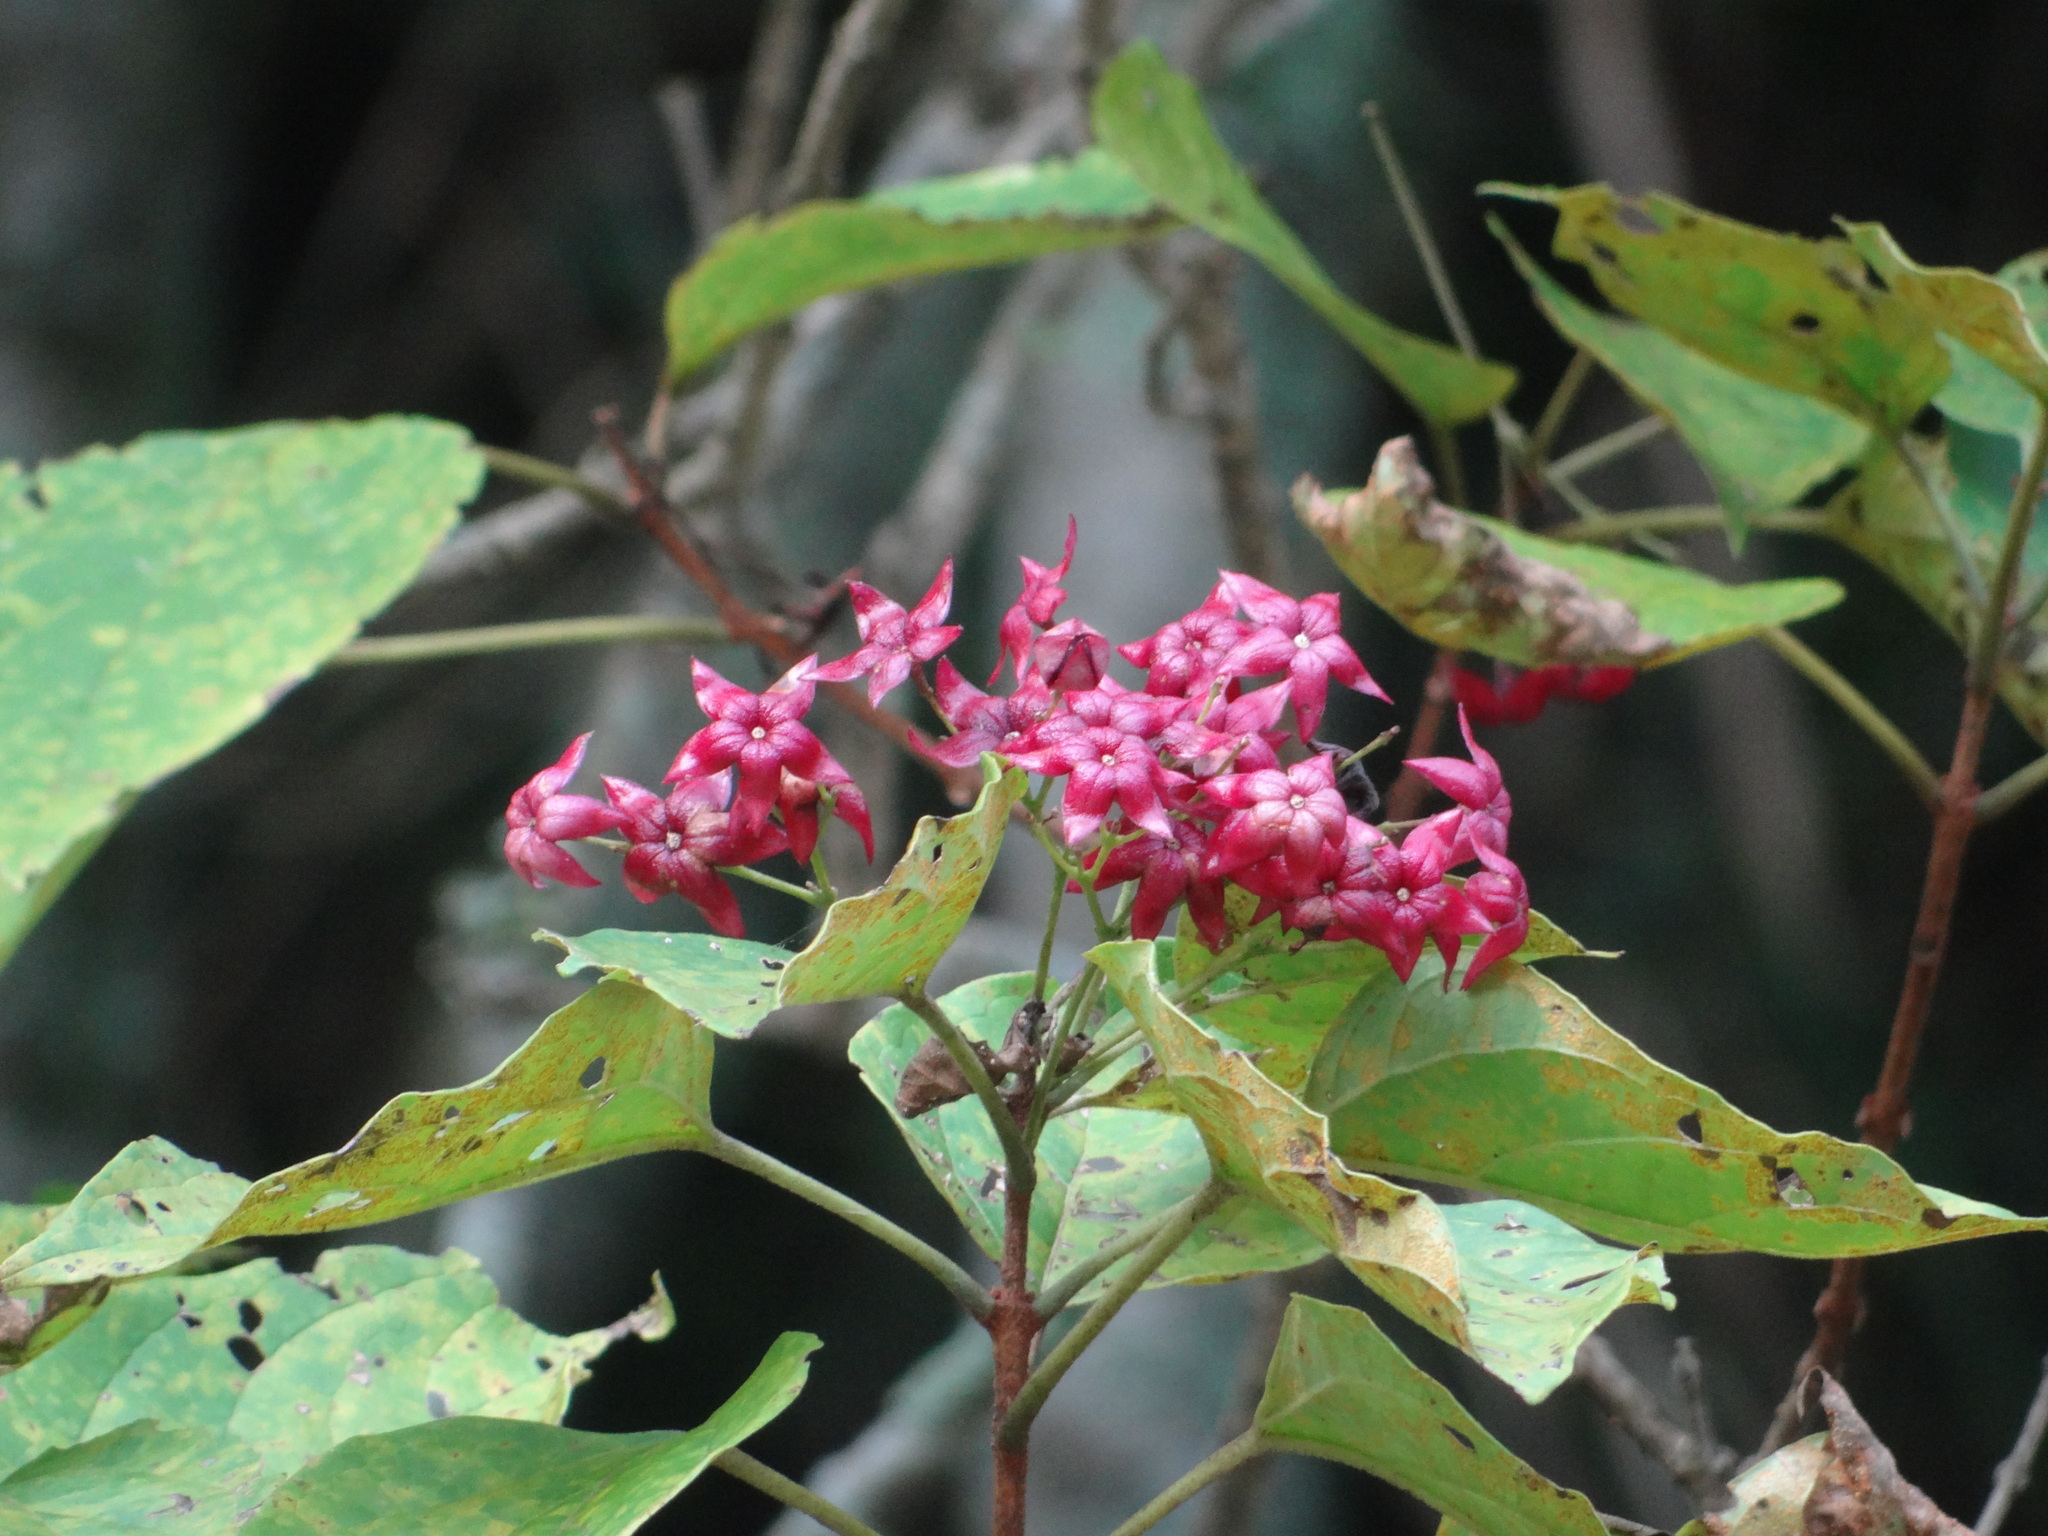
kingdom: Plantae
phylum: Tracheophyta
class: Magnoliopsida
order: Lamiales
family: Lamiaceae
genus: Clerodendrum
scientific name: Clerodendrum trichotomum
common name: Harlequin glorybower
